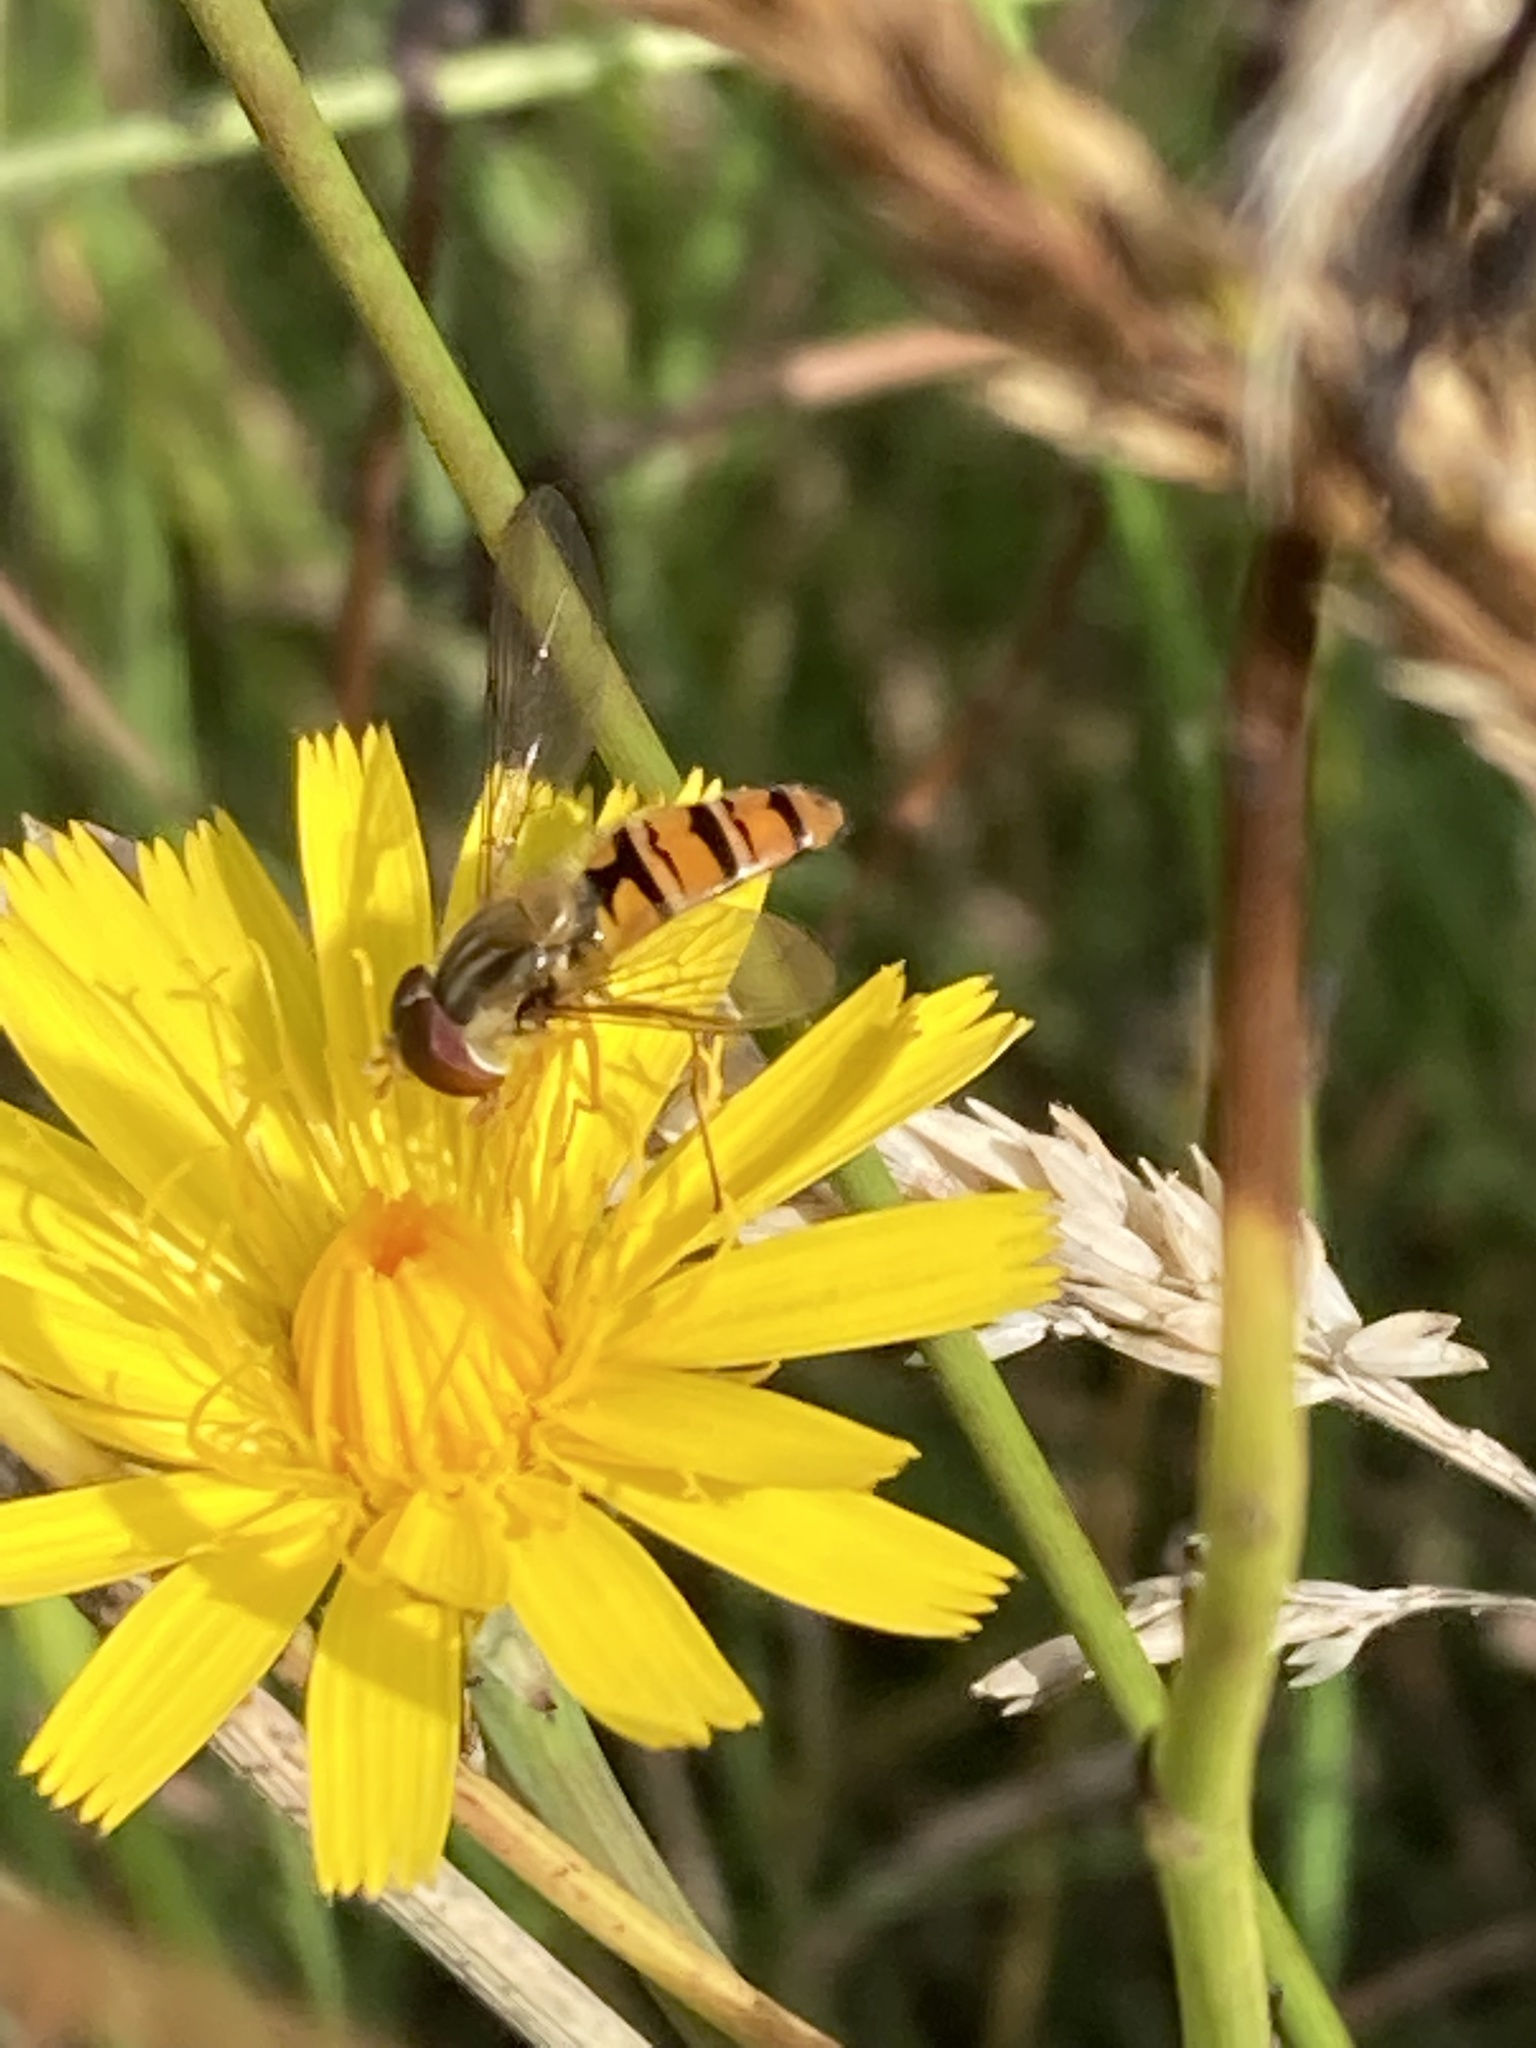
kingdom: Animalia
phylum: Arthropoda
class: Insecta
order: Diptera
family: Syrphidae
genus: Episyrphus
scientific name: Episyrphus balteatus
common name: Marmalade hoverfly
